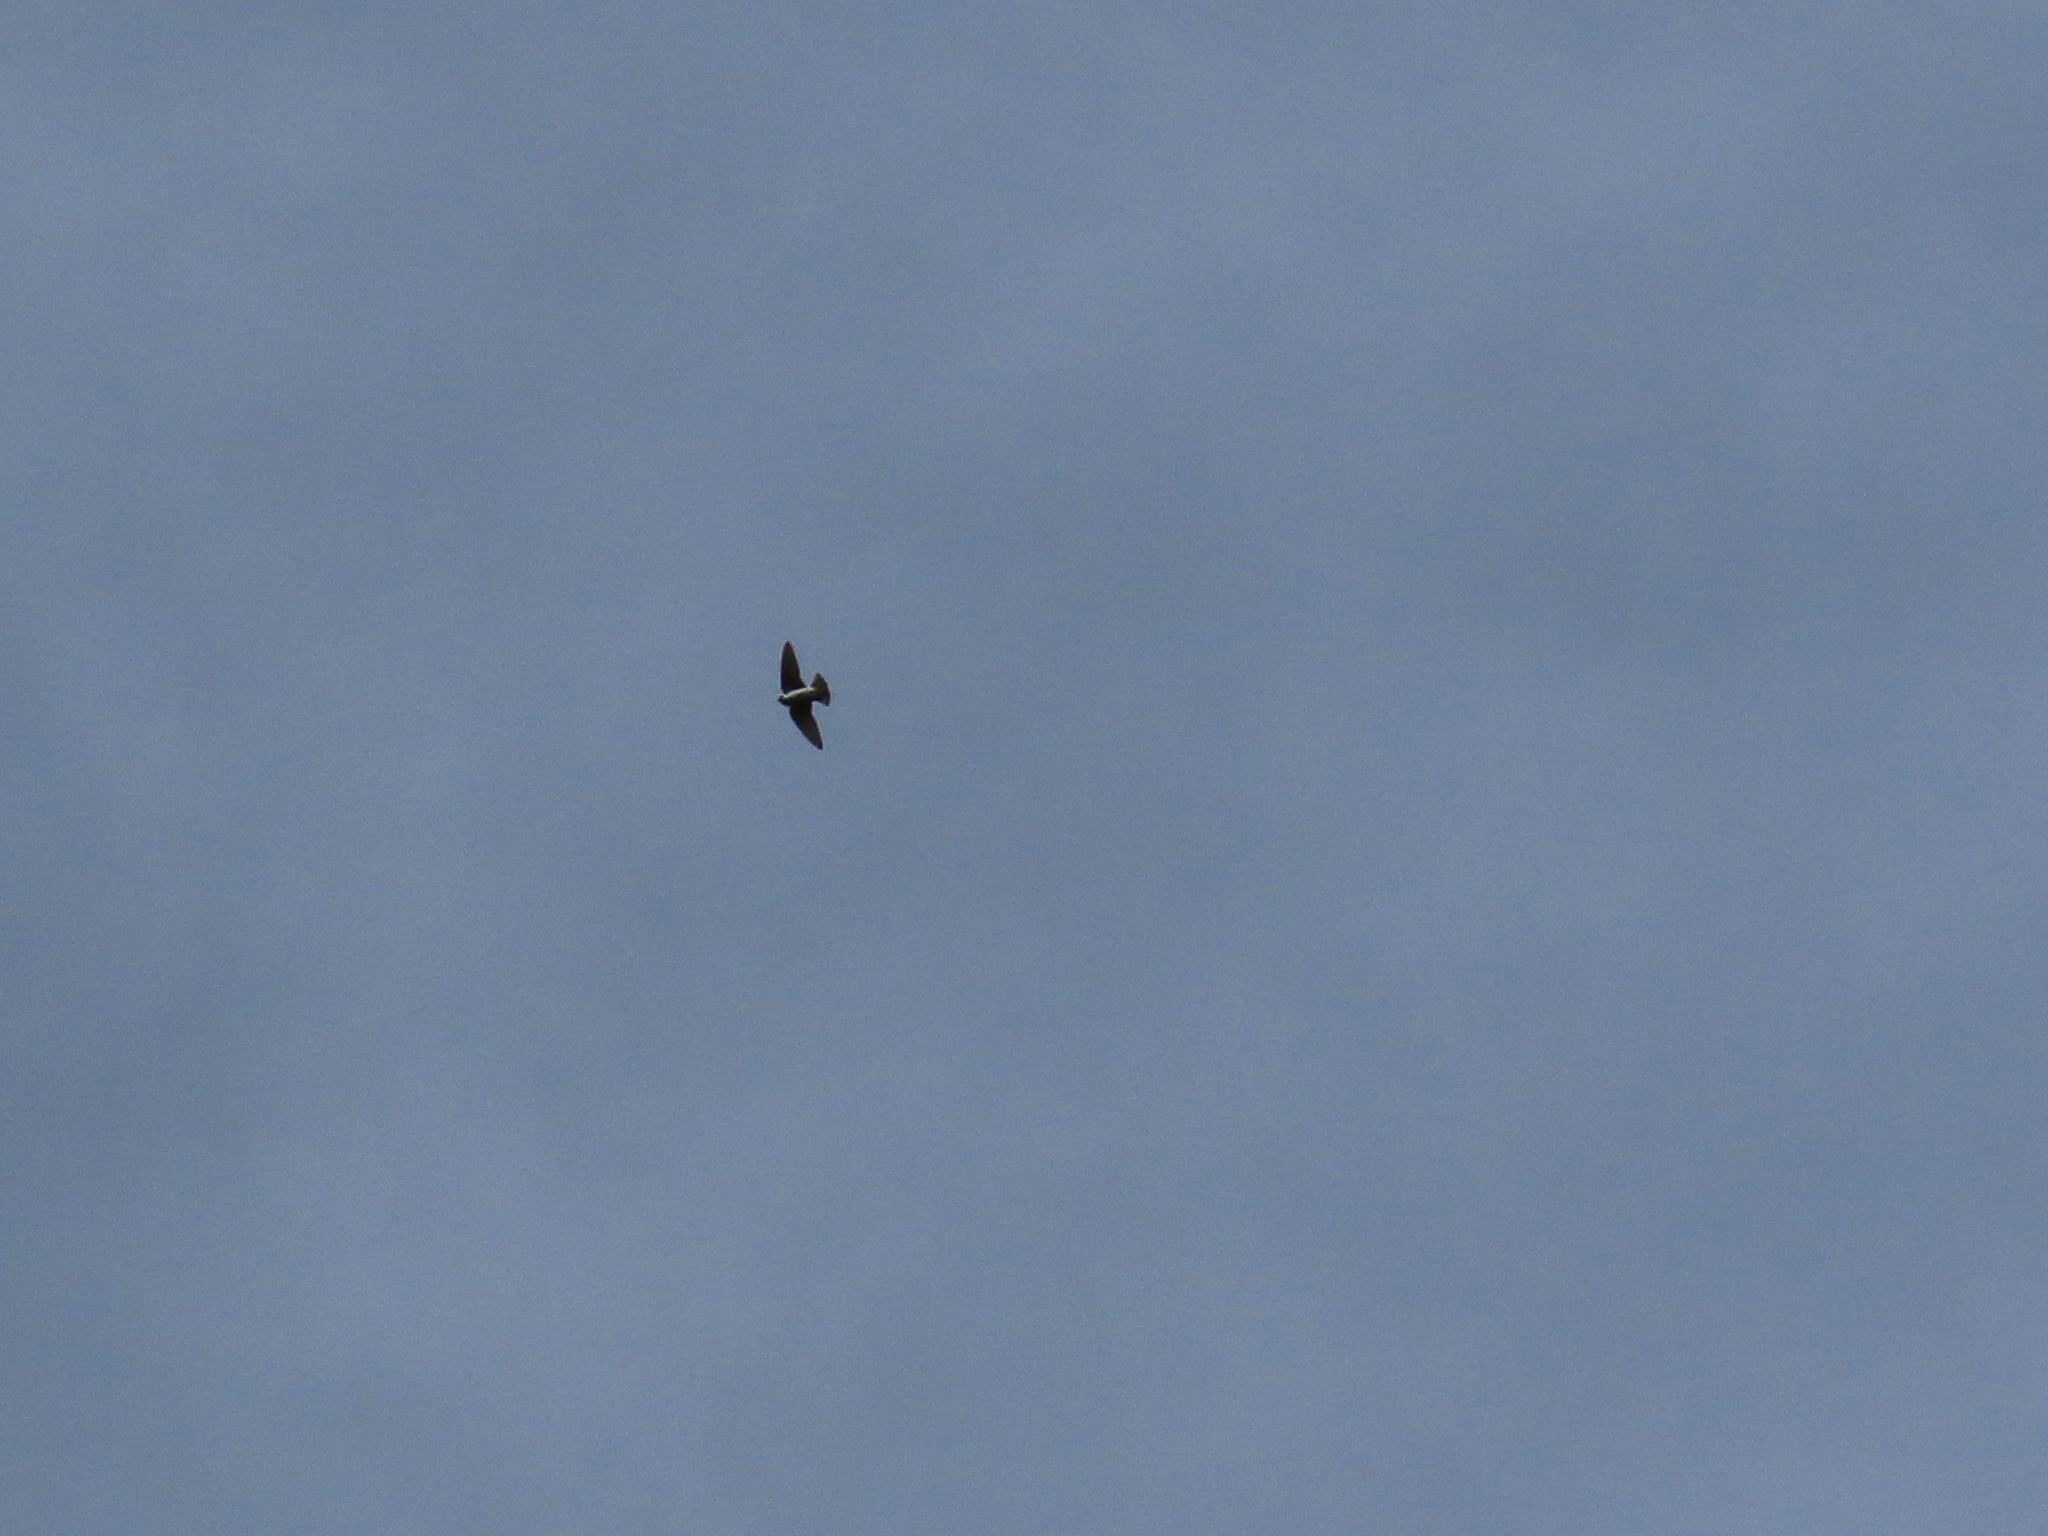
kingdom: Animalia
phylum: Chordata
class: Aves
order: Passeriformes
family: Hirundinidae
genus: Tachycineta
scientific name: Tachycineta bicolor
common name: Tree swallow
